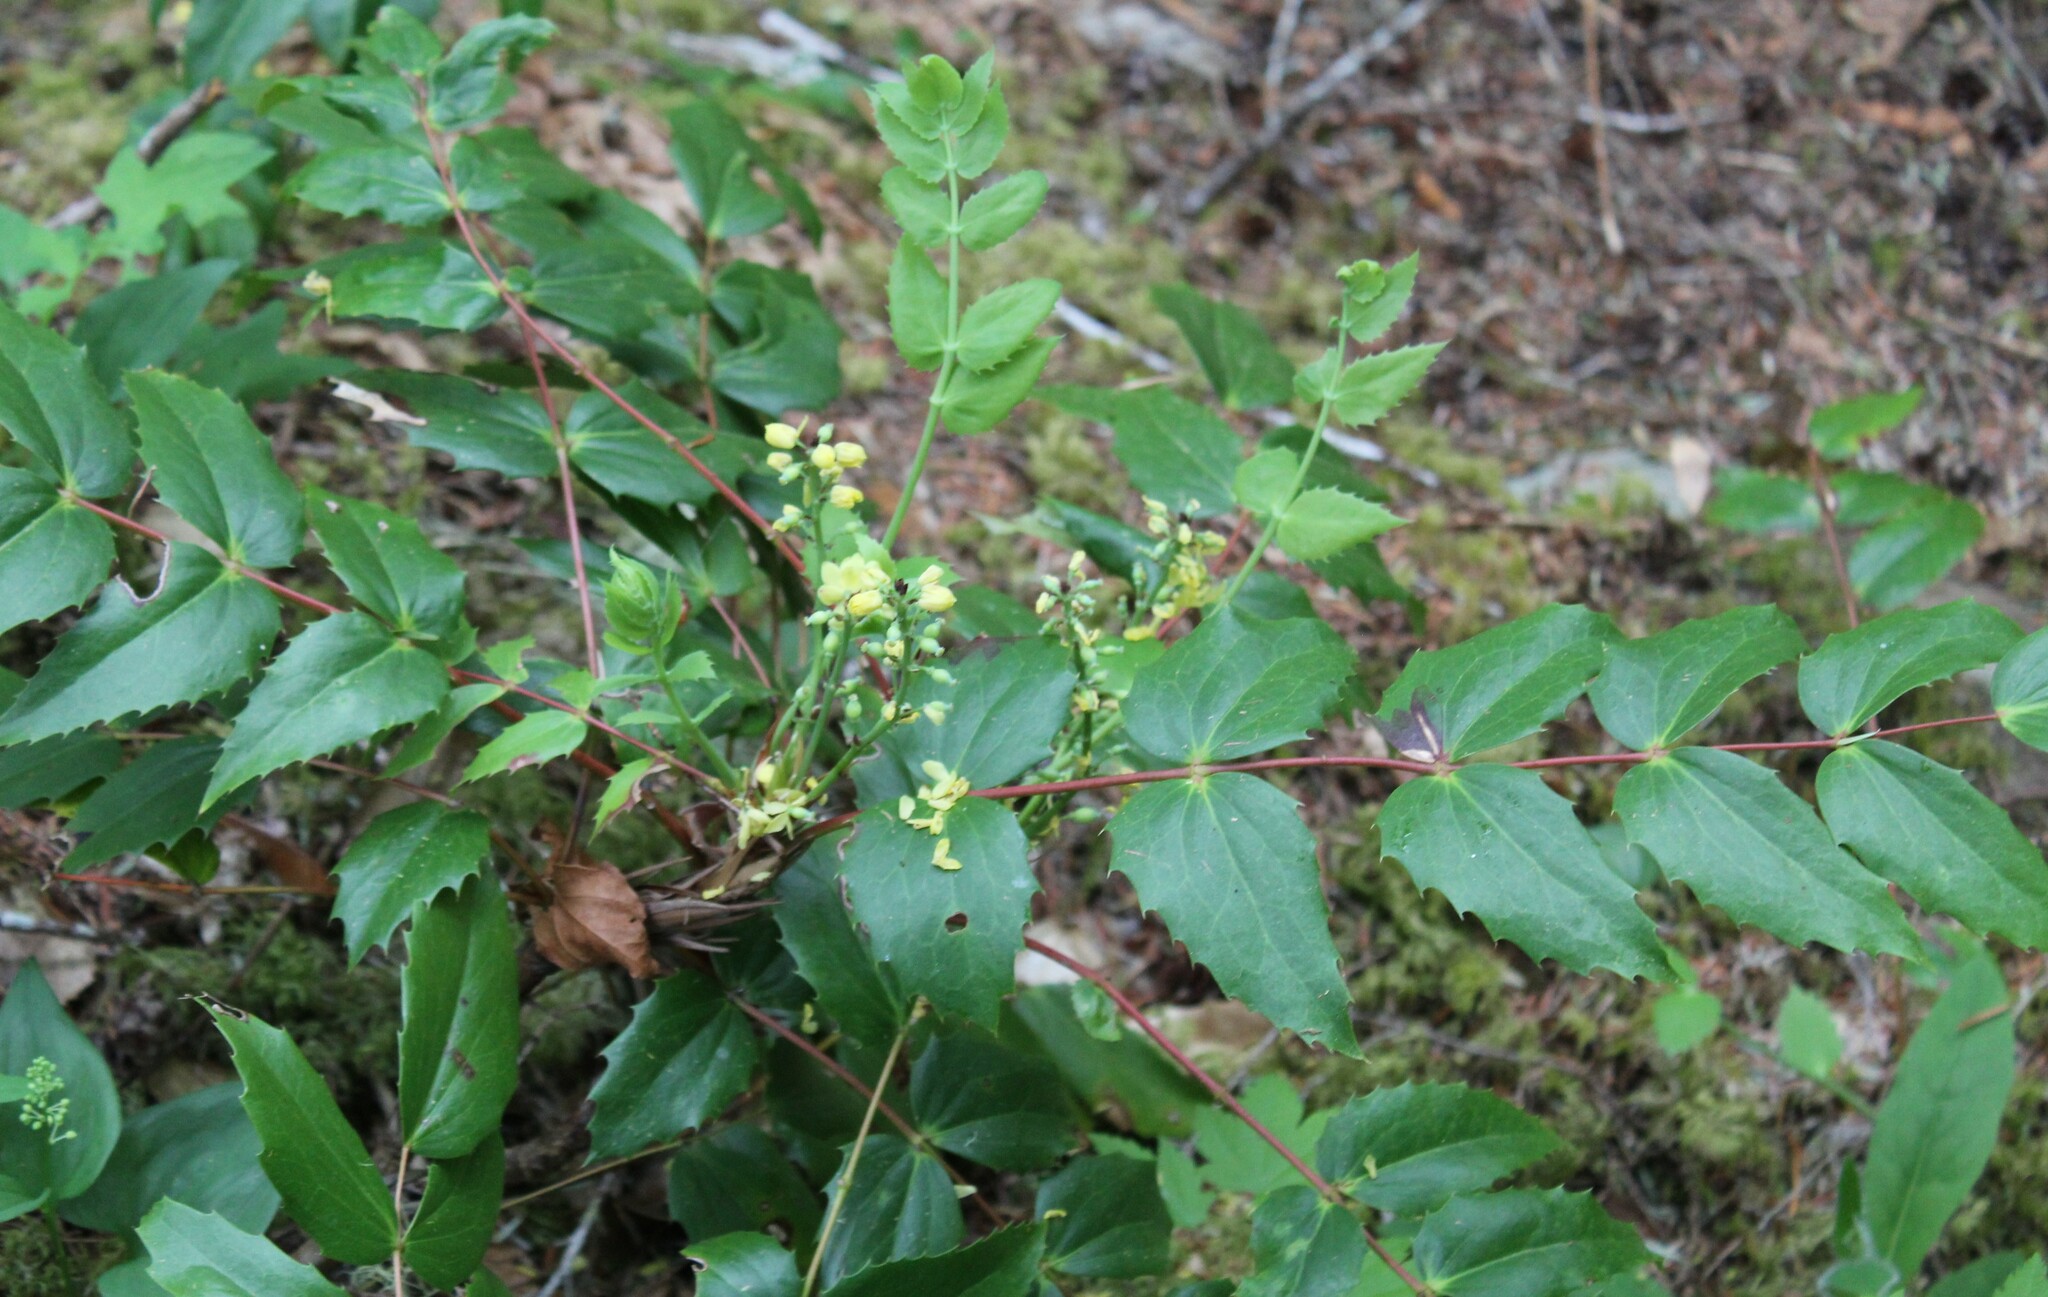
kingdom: Plantae
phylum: Tracheophyta
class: Magnoliopsida
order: Ranunculales
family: Berberidaceae
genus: Mahonia
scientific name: Mahonia nervosa
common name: Cascade oregon-grape
